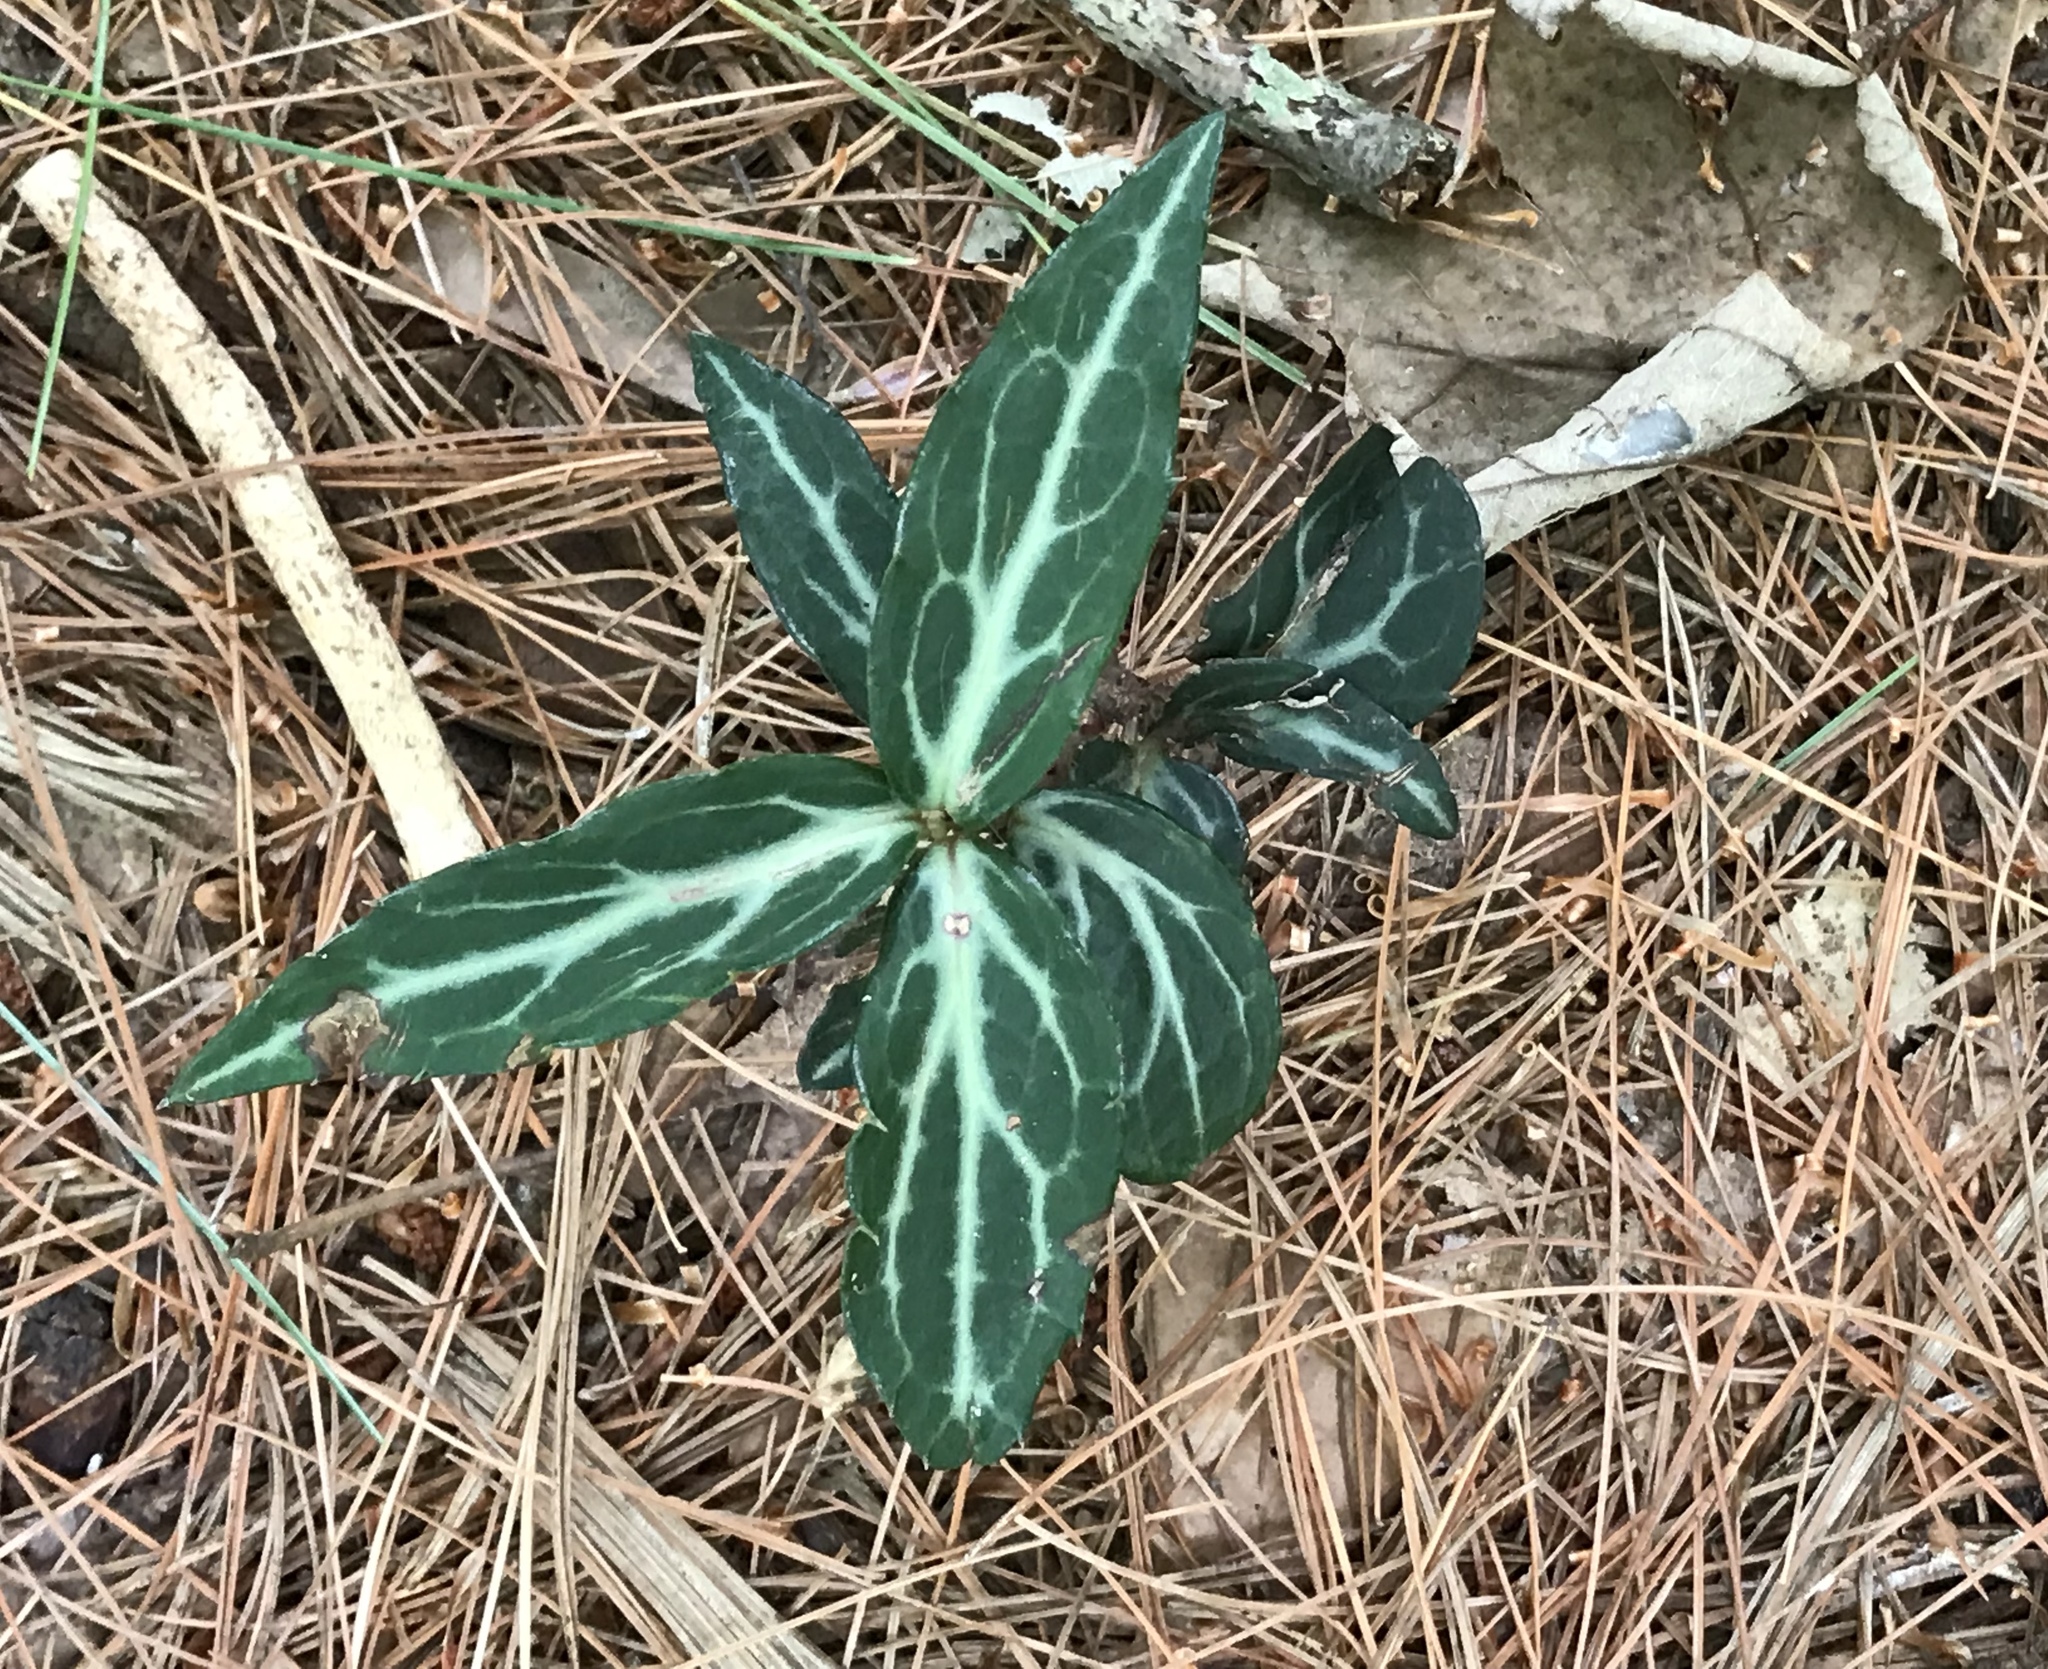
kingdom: Plantae
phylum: Tracheophyta
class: Magnoliopsida
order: Ericales
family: Ericaceae
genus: Chimaphila
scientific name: Chimaphila maculata
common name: Spotted pipsissewa
